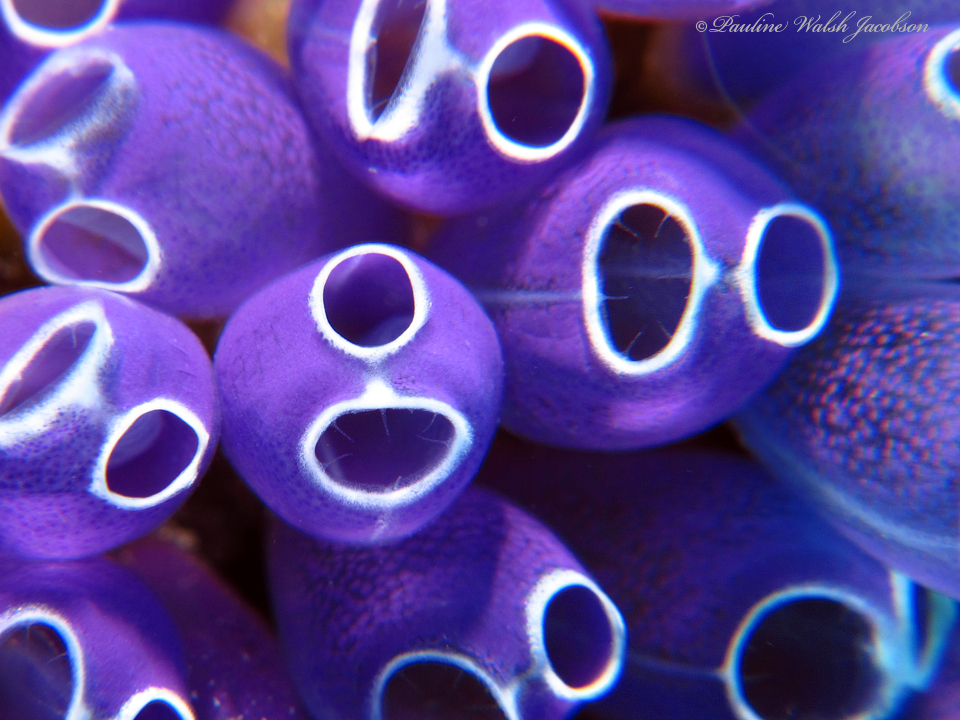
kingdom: Animalia
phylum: Chordata
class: Ascidiacea
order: Aplousobranchia
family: Clavelinidae
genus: Clavelina
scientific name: Clavelina puertosecensis
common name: Blue bell tunicate
